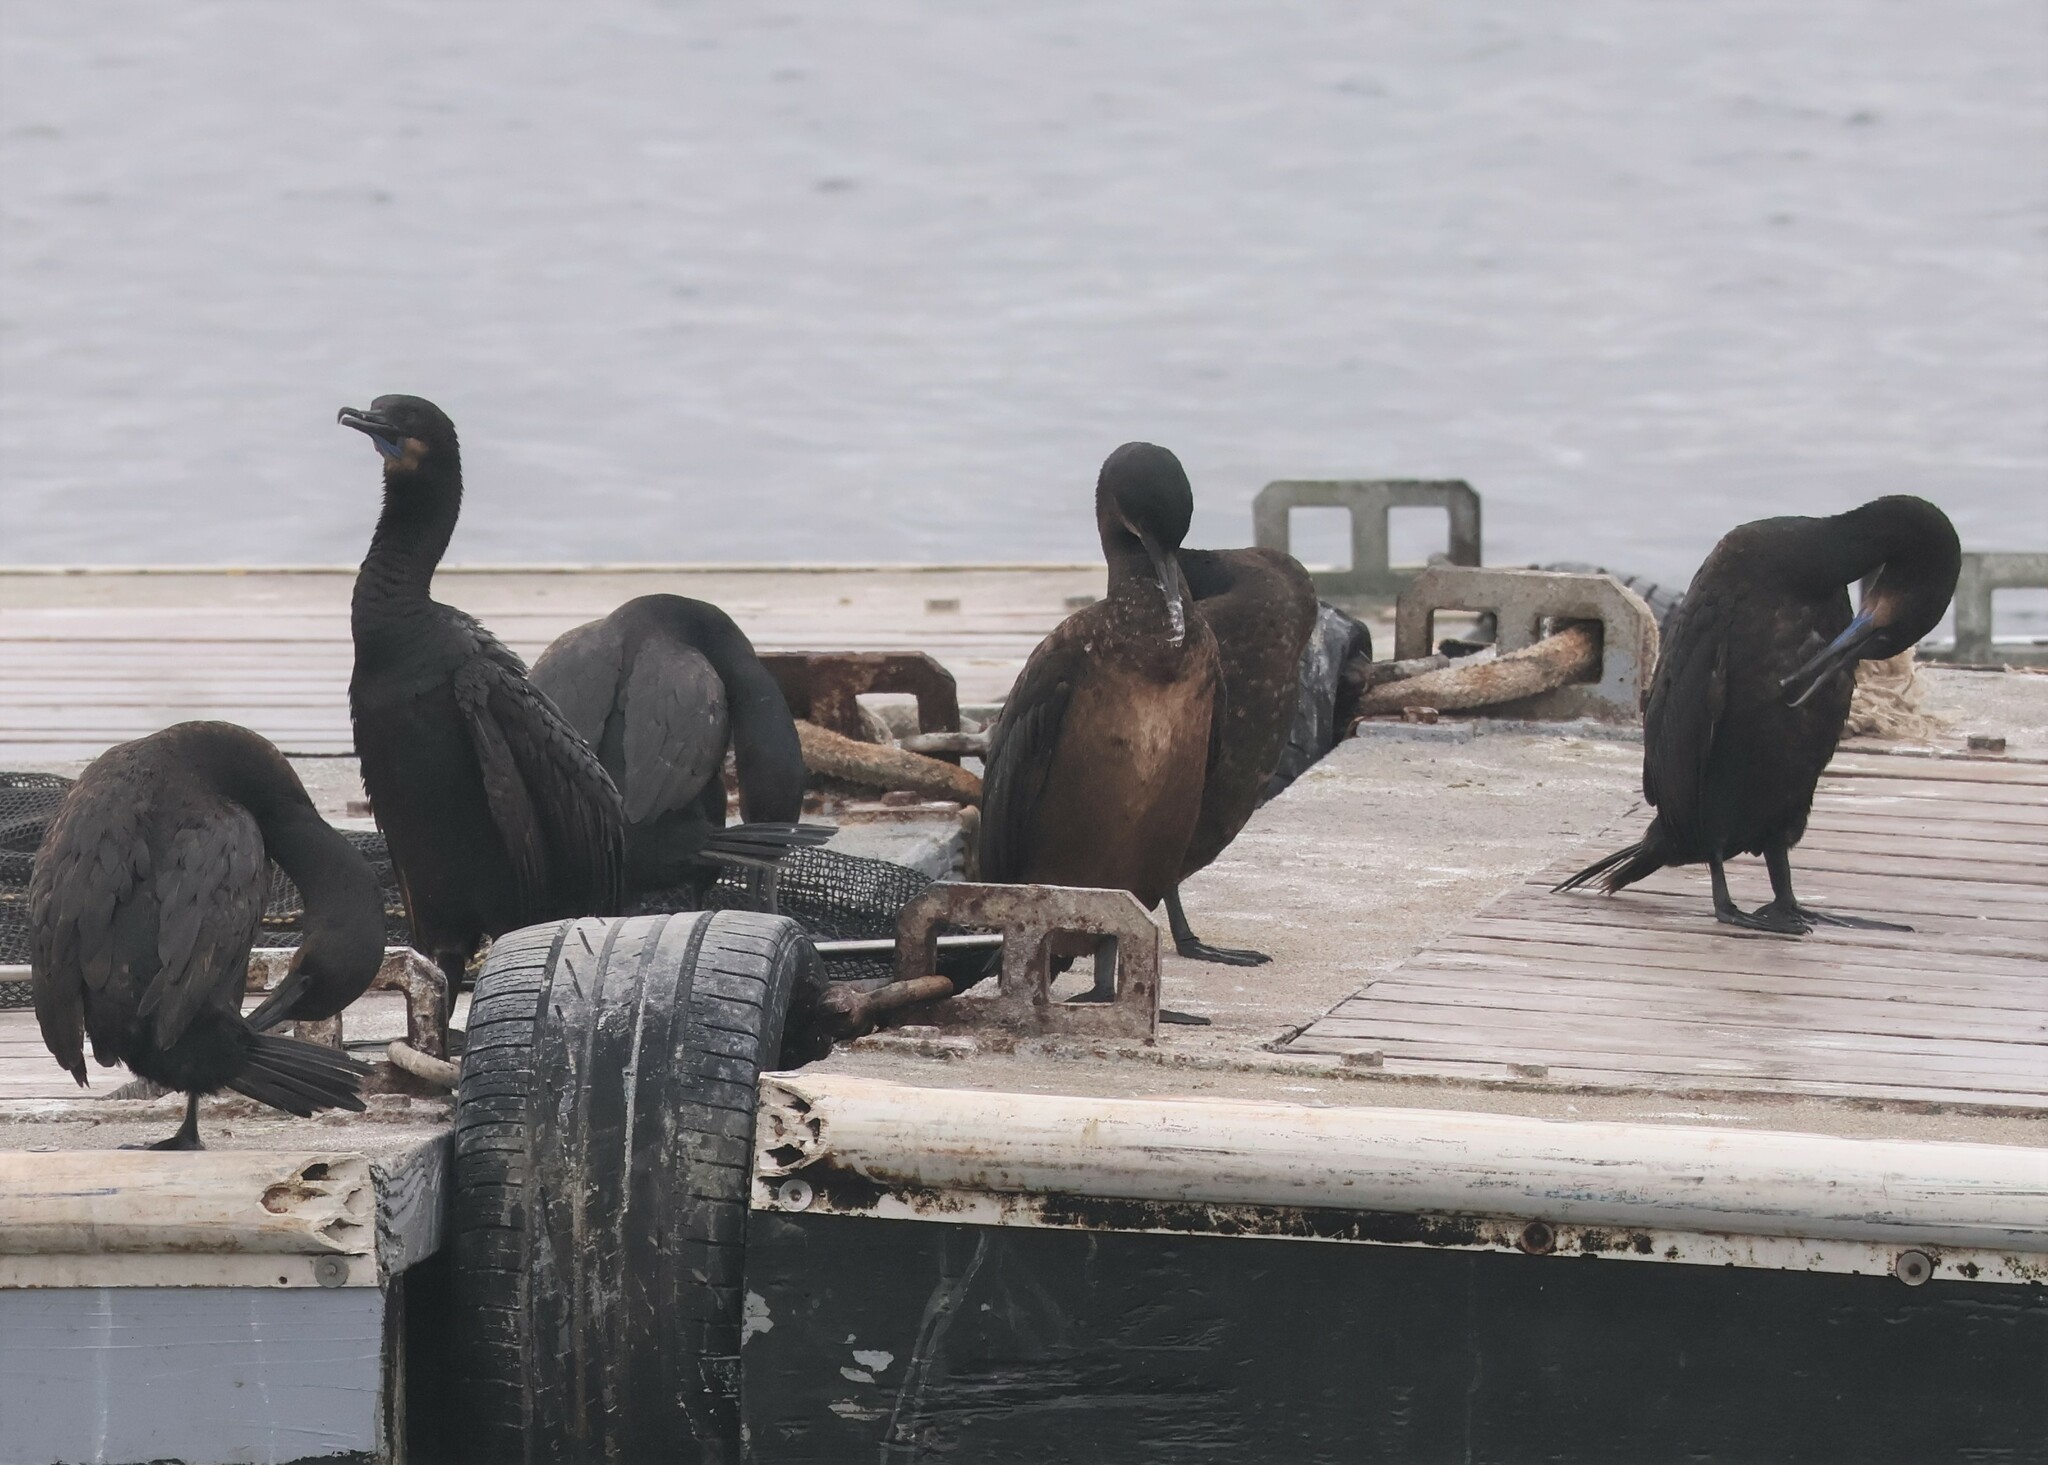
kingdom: Animalia
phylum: Chordata
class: Aves
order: Suliformes
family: Phalacrocoracidae
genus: Urile
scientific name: Urile penicillatus
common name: Brandt's cormorant
